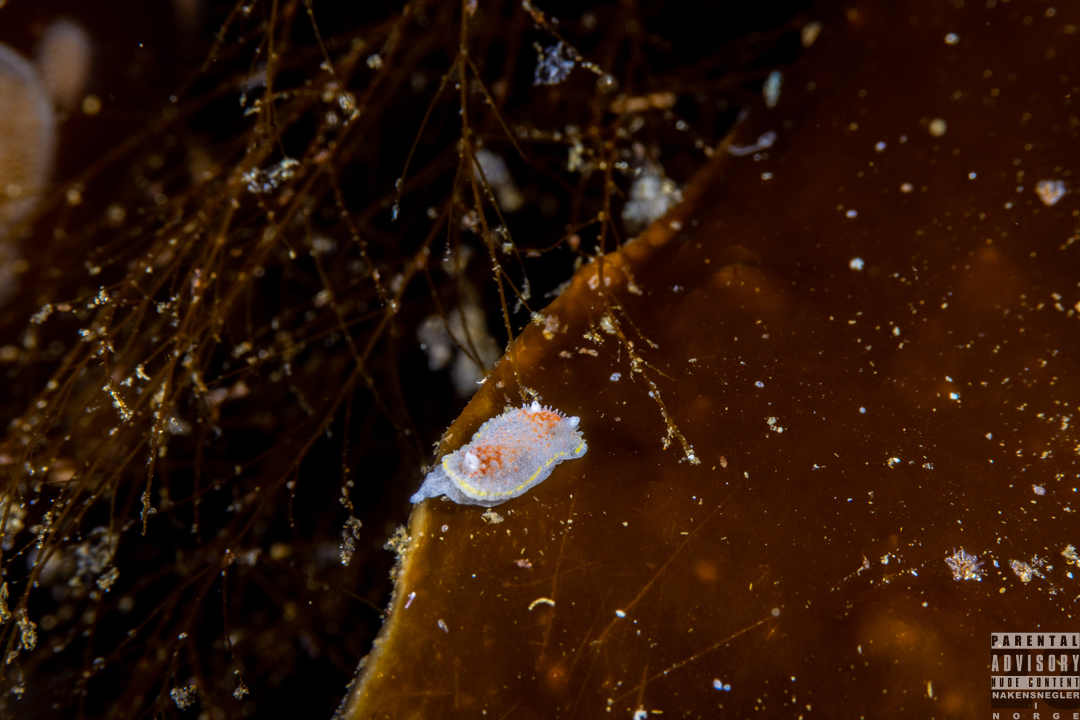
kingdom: Animalia
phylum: Mollusca
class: Gastropoda
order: Nudibranchia
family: Calycidorididae
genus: Diaphorodoris
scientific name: Diaphorodoris luteocincta
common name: Fried egg nudibranch
